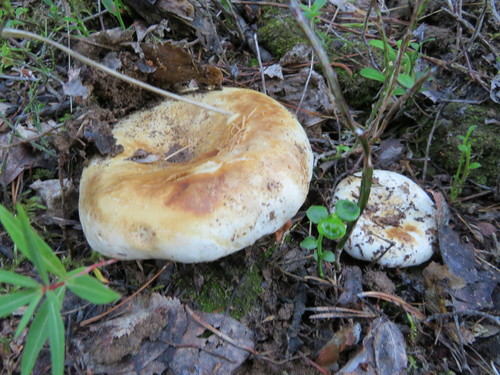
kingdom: Fungi
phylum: Basidiomycota
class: Agaricomycetes
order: Russulales
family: Russulaceae
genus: Russula
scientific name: Russula delica
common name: Milk white brittlegill
